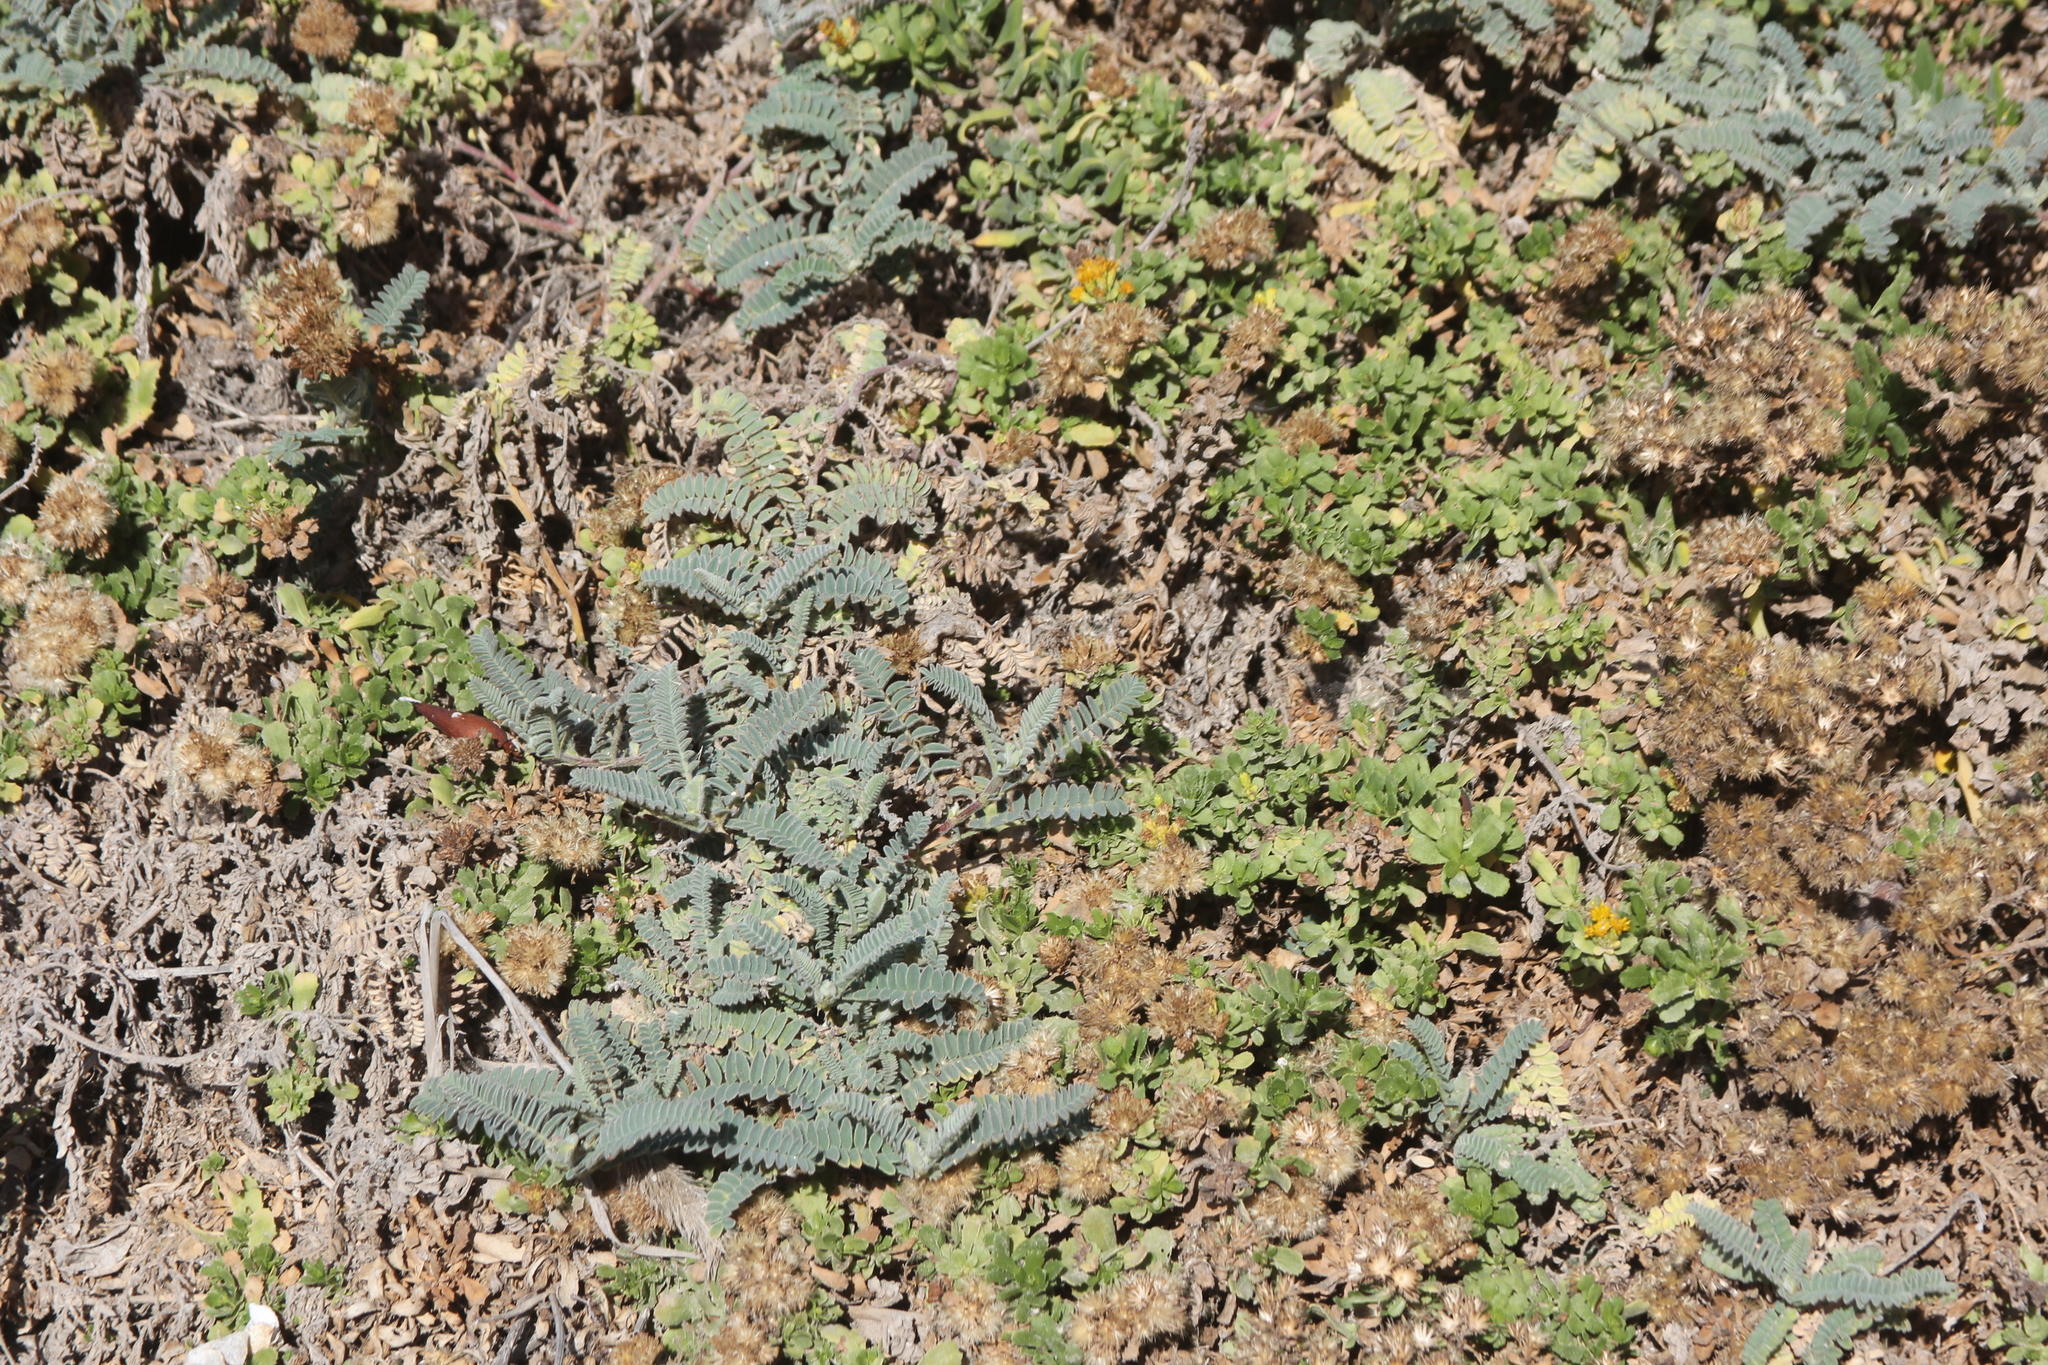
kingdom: Plantae
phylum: Tracheophyta
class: Magnoliopsida
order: Fabales
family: Fabaceae
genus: Astragalus
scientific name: Astragalus nuttallii
